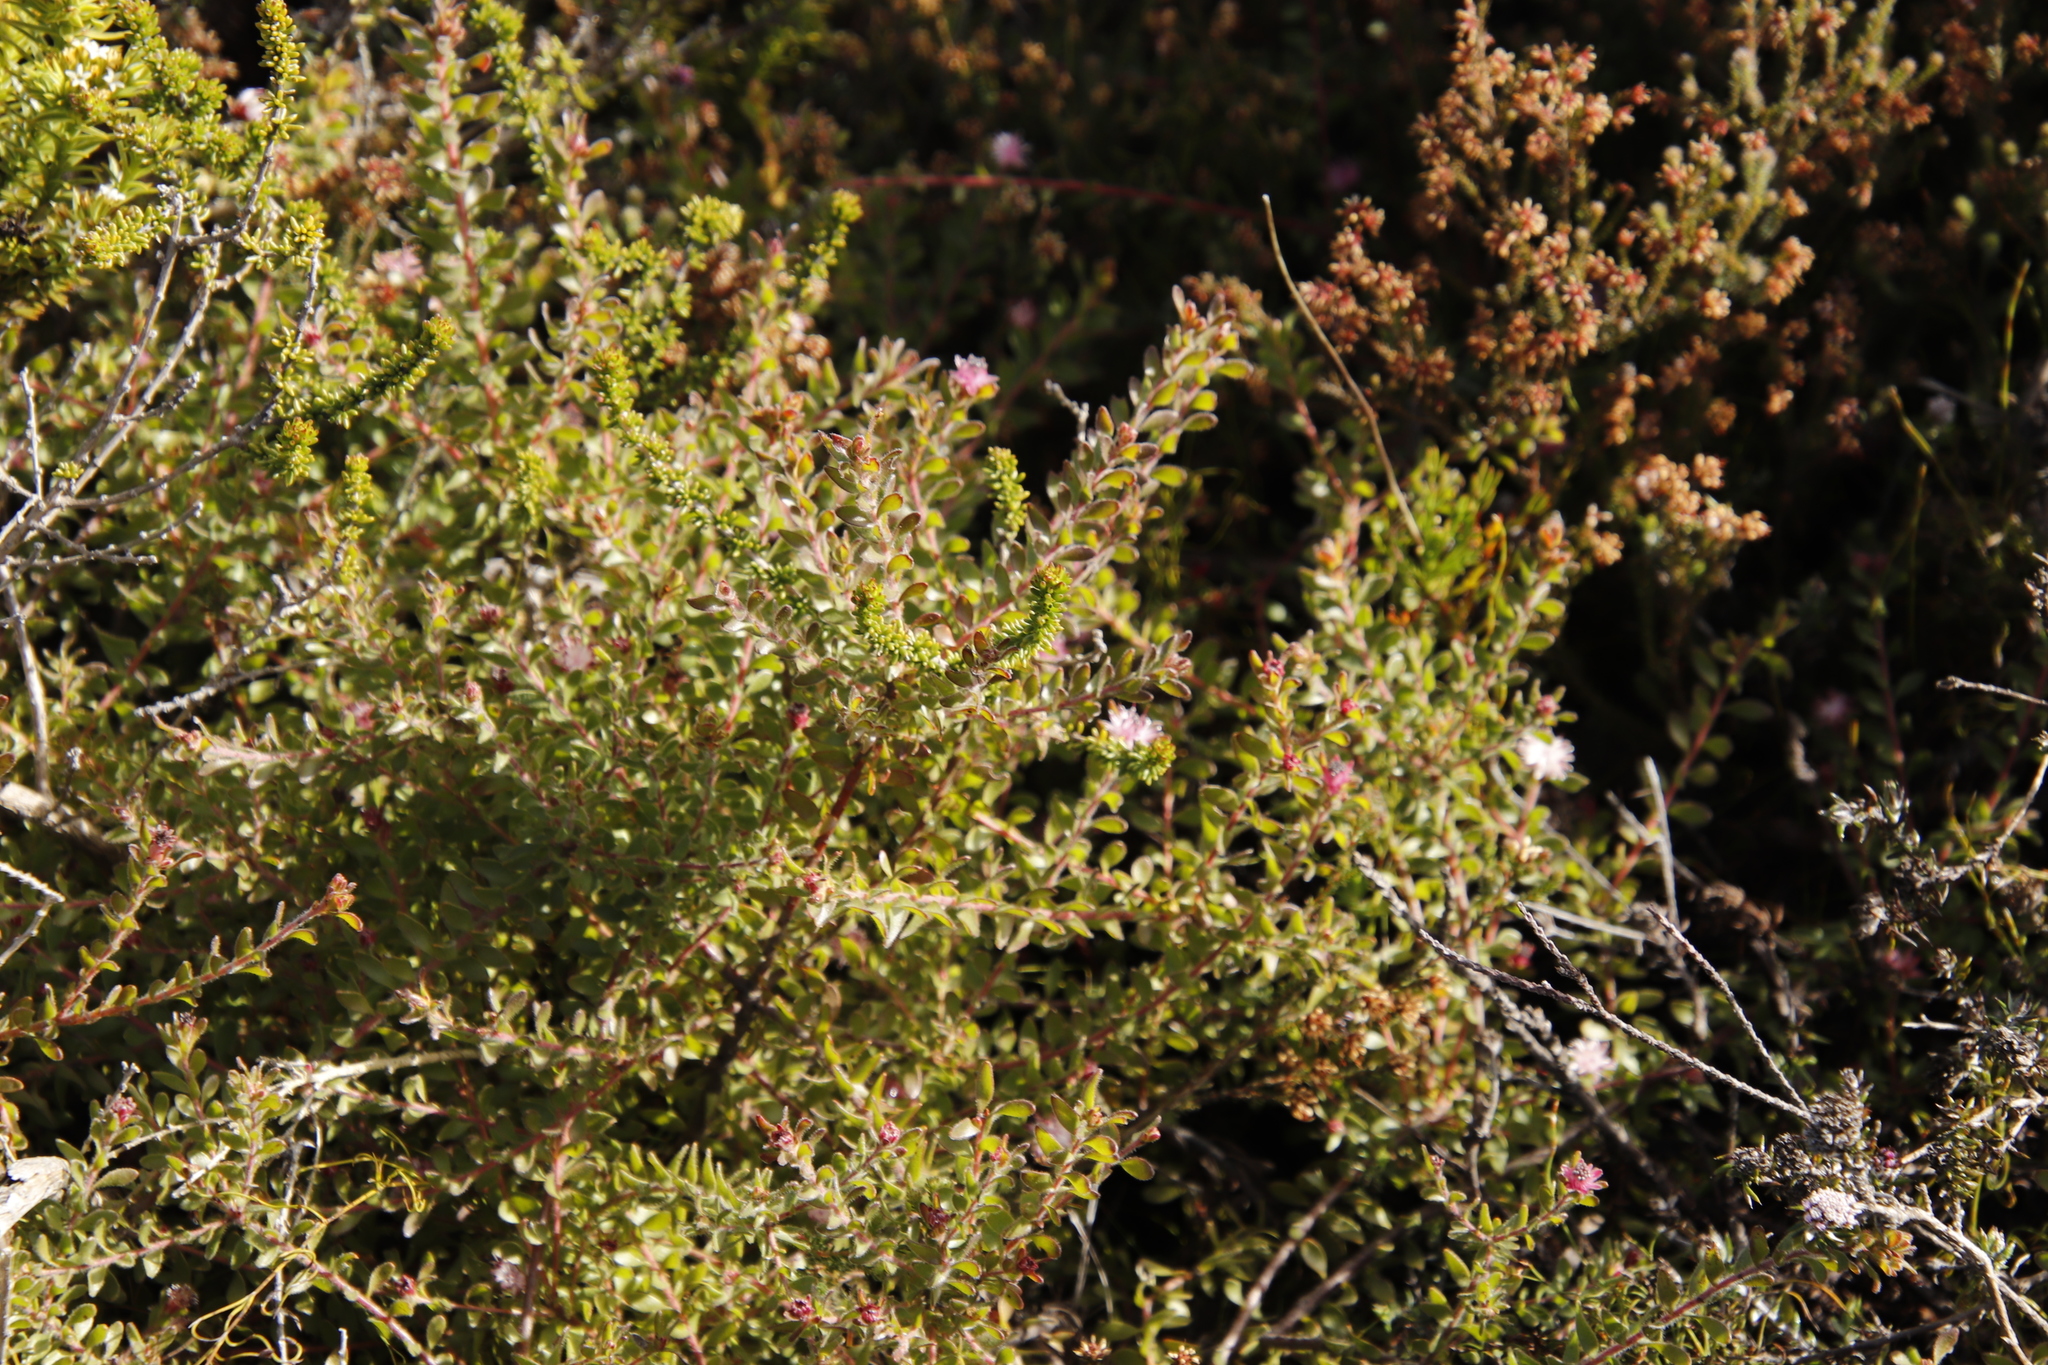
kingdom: Plantae
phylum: Tracheophyta
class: Magnoliopsida
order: Proteales
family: Proteaceae
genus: Diastella
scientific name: Diastella divaricata
